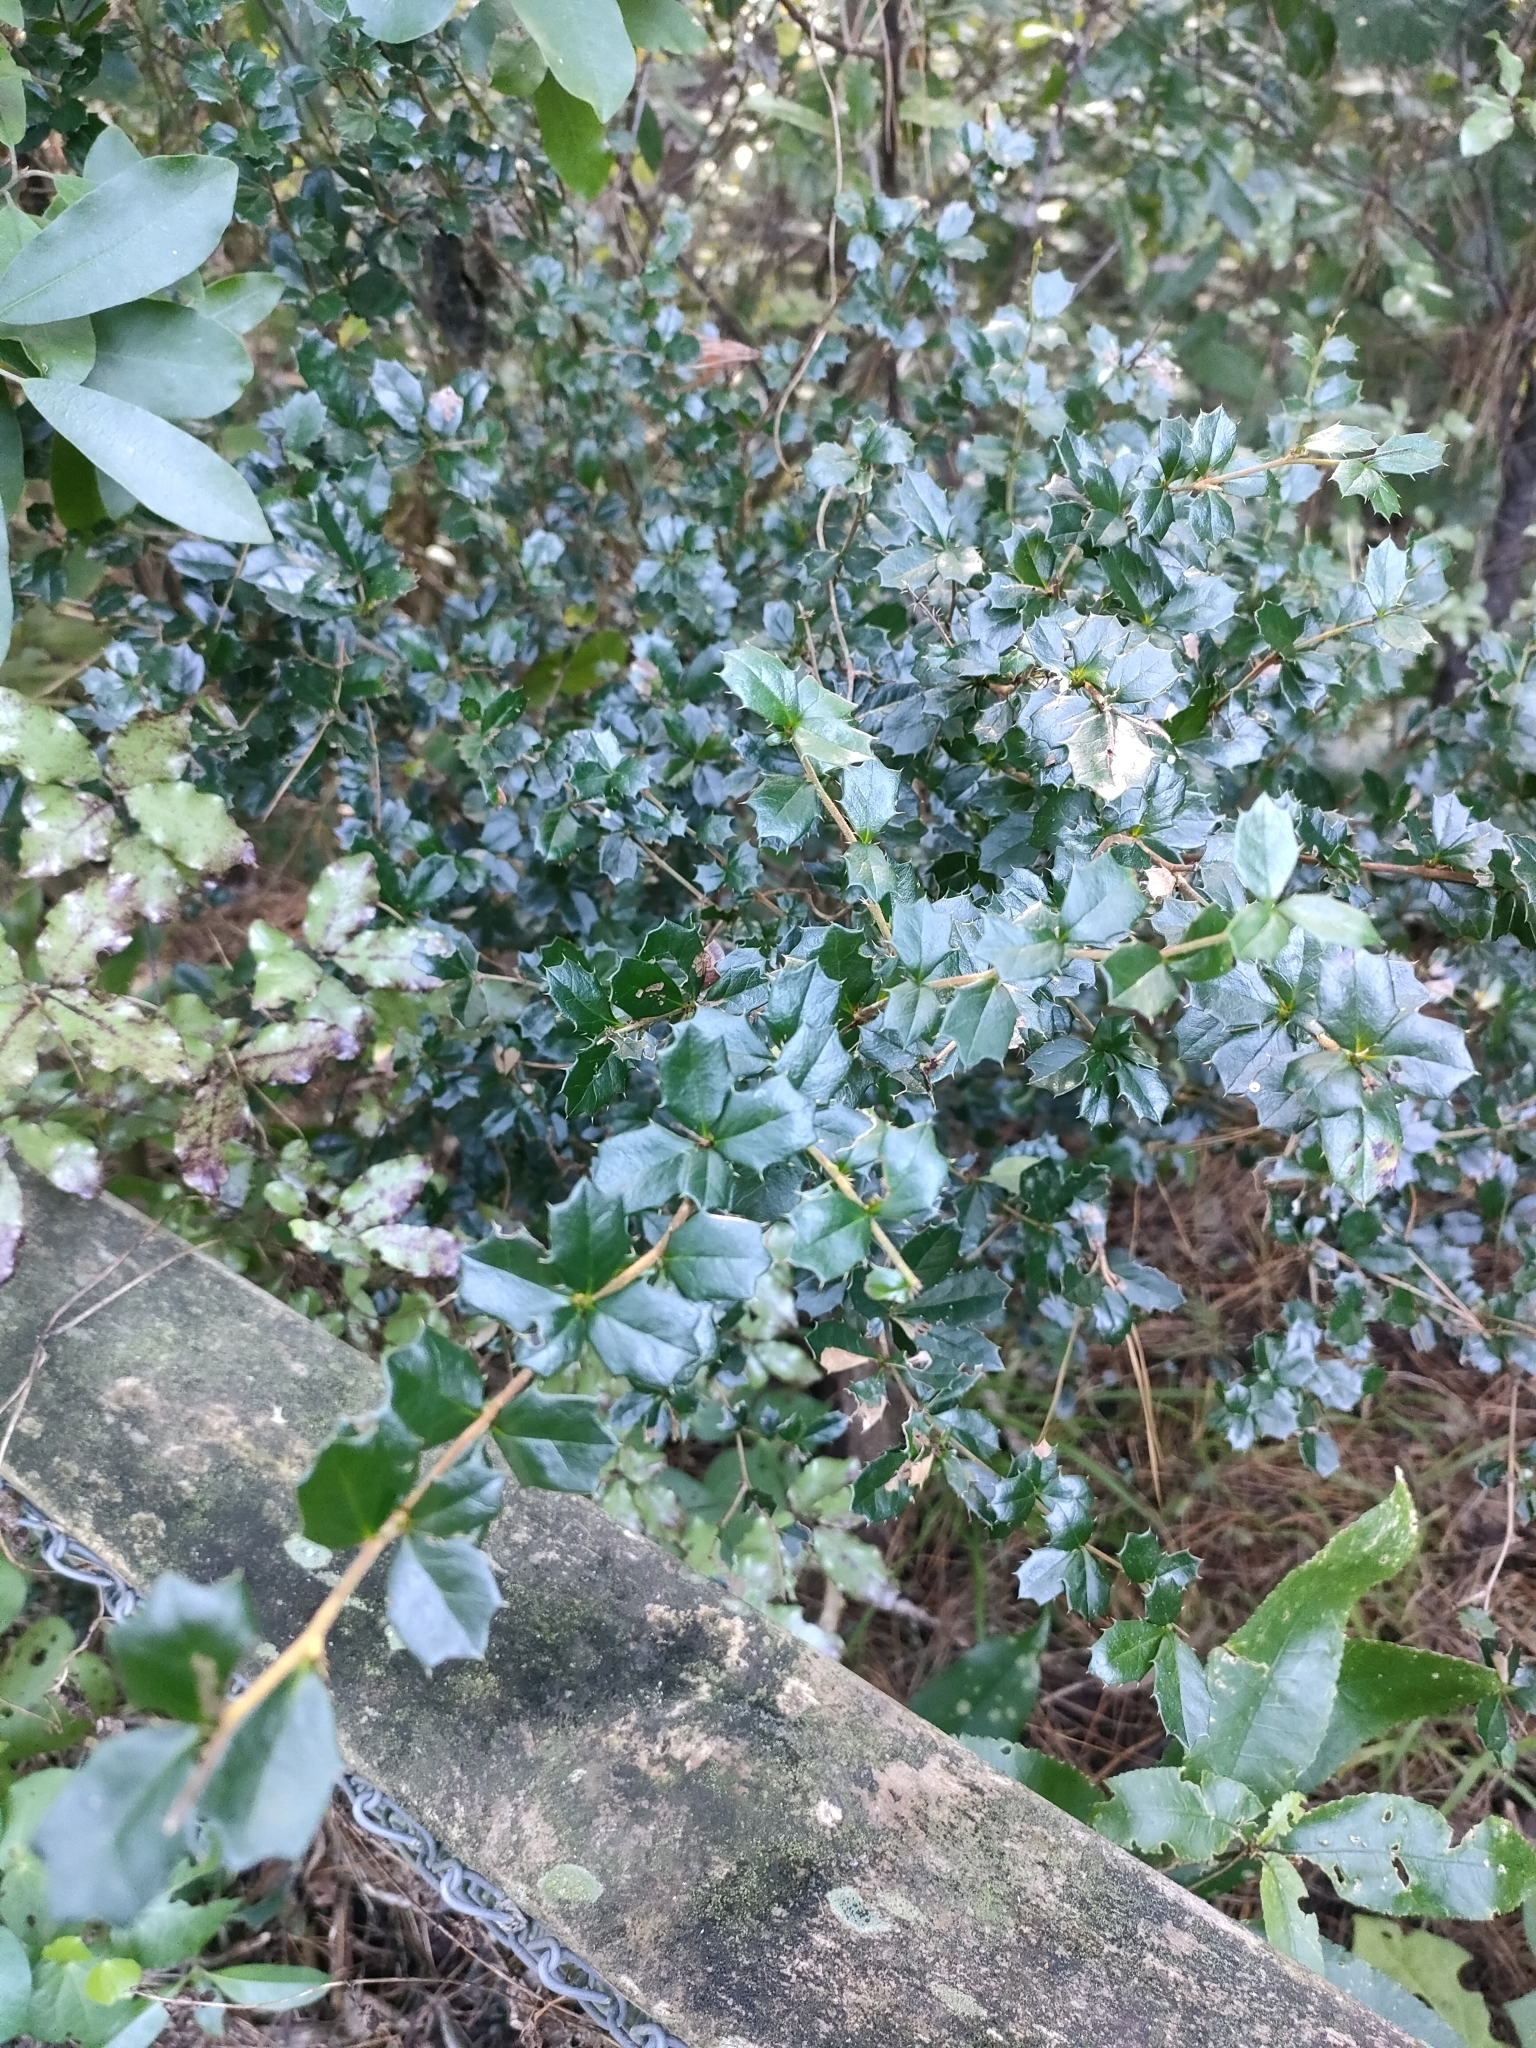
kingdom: Plantae
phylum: Tracheophyta
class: Magnoliopsida
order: Ranunculales
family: Berberidaceae
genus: Berberis
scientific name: Berberis darwinii
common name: Darwin's barberry
